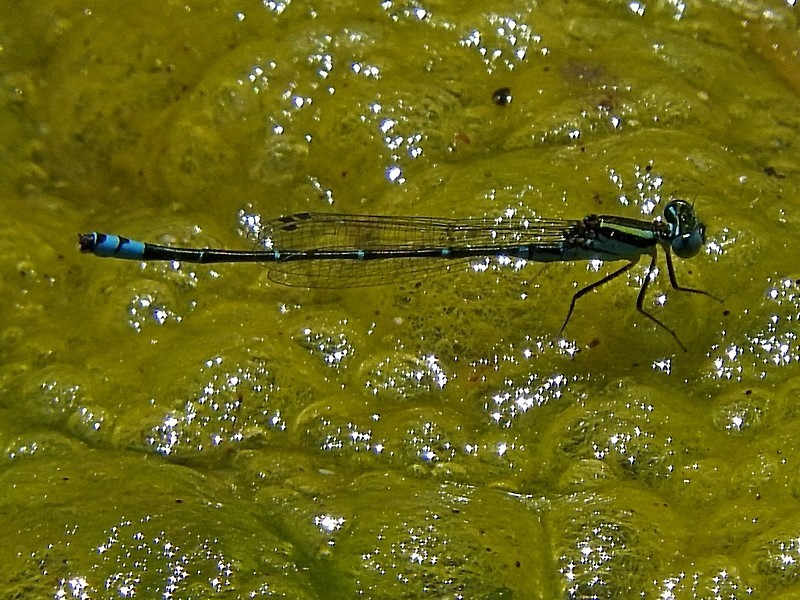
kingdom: Animalia
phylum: Arthropoda
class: Insecta
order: Odonata
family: Coenagrionidae
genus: Austroagrion
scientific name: Austroagrion watsoni
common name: Eastern billabongfly
